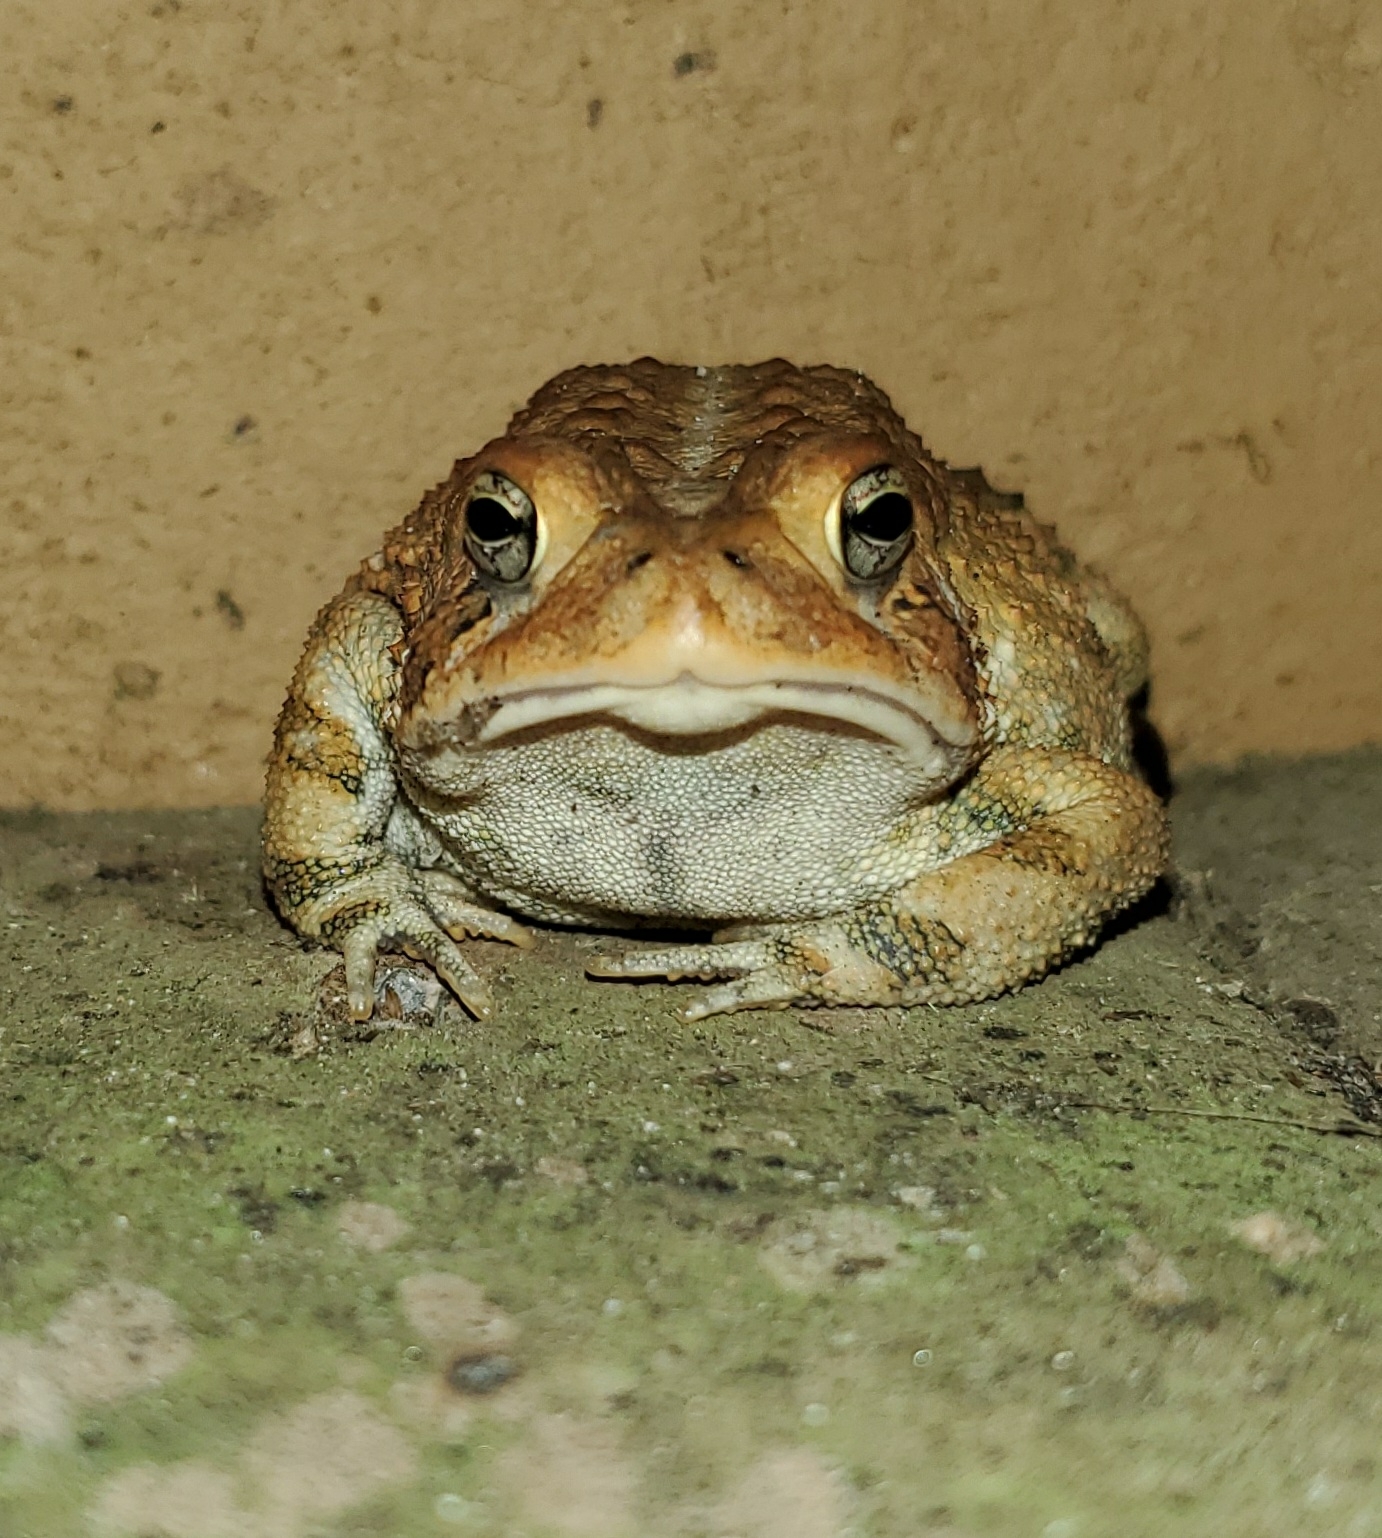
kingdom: Animalia
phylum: Chordata
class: Amphibia
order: Anura
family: Bufonidae
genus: Anaxyrus
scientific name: Anaxyrus terrestris
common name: Southern toad
